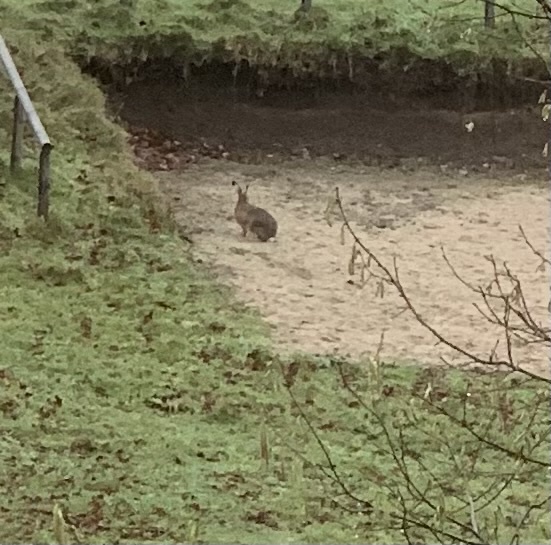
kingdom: Animalia
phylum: Chordata
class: Mammalia
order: Lagomorpha
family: Leporidae
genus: Lepus
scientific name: Lepus europaeus
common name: European hare
